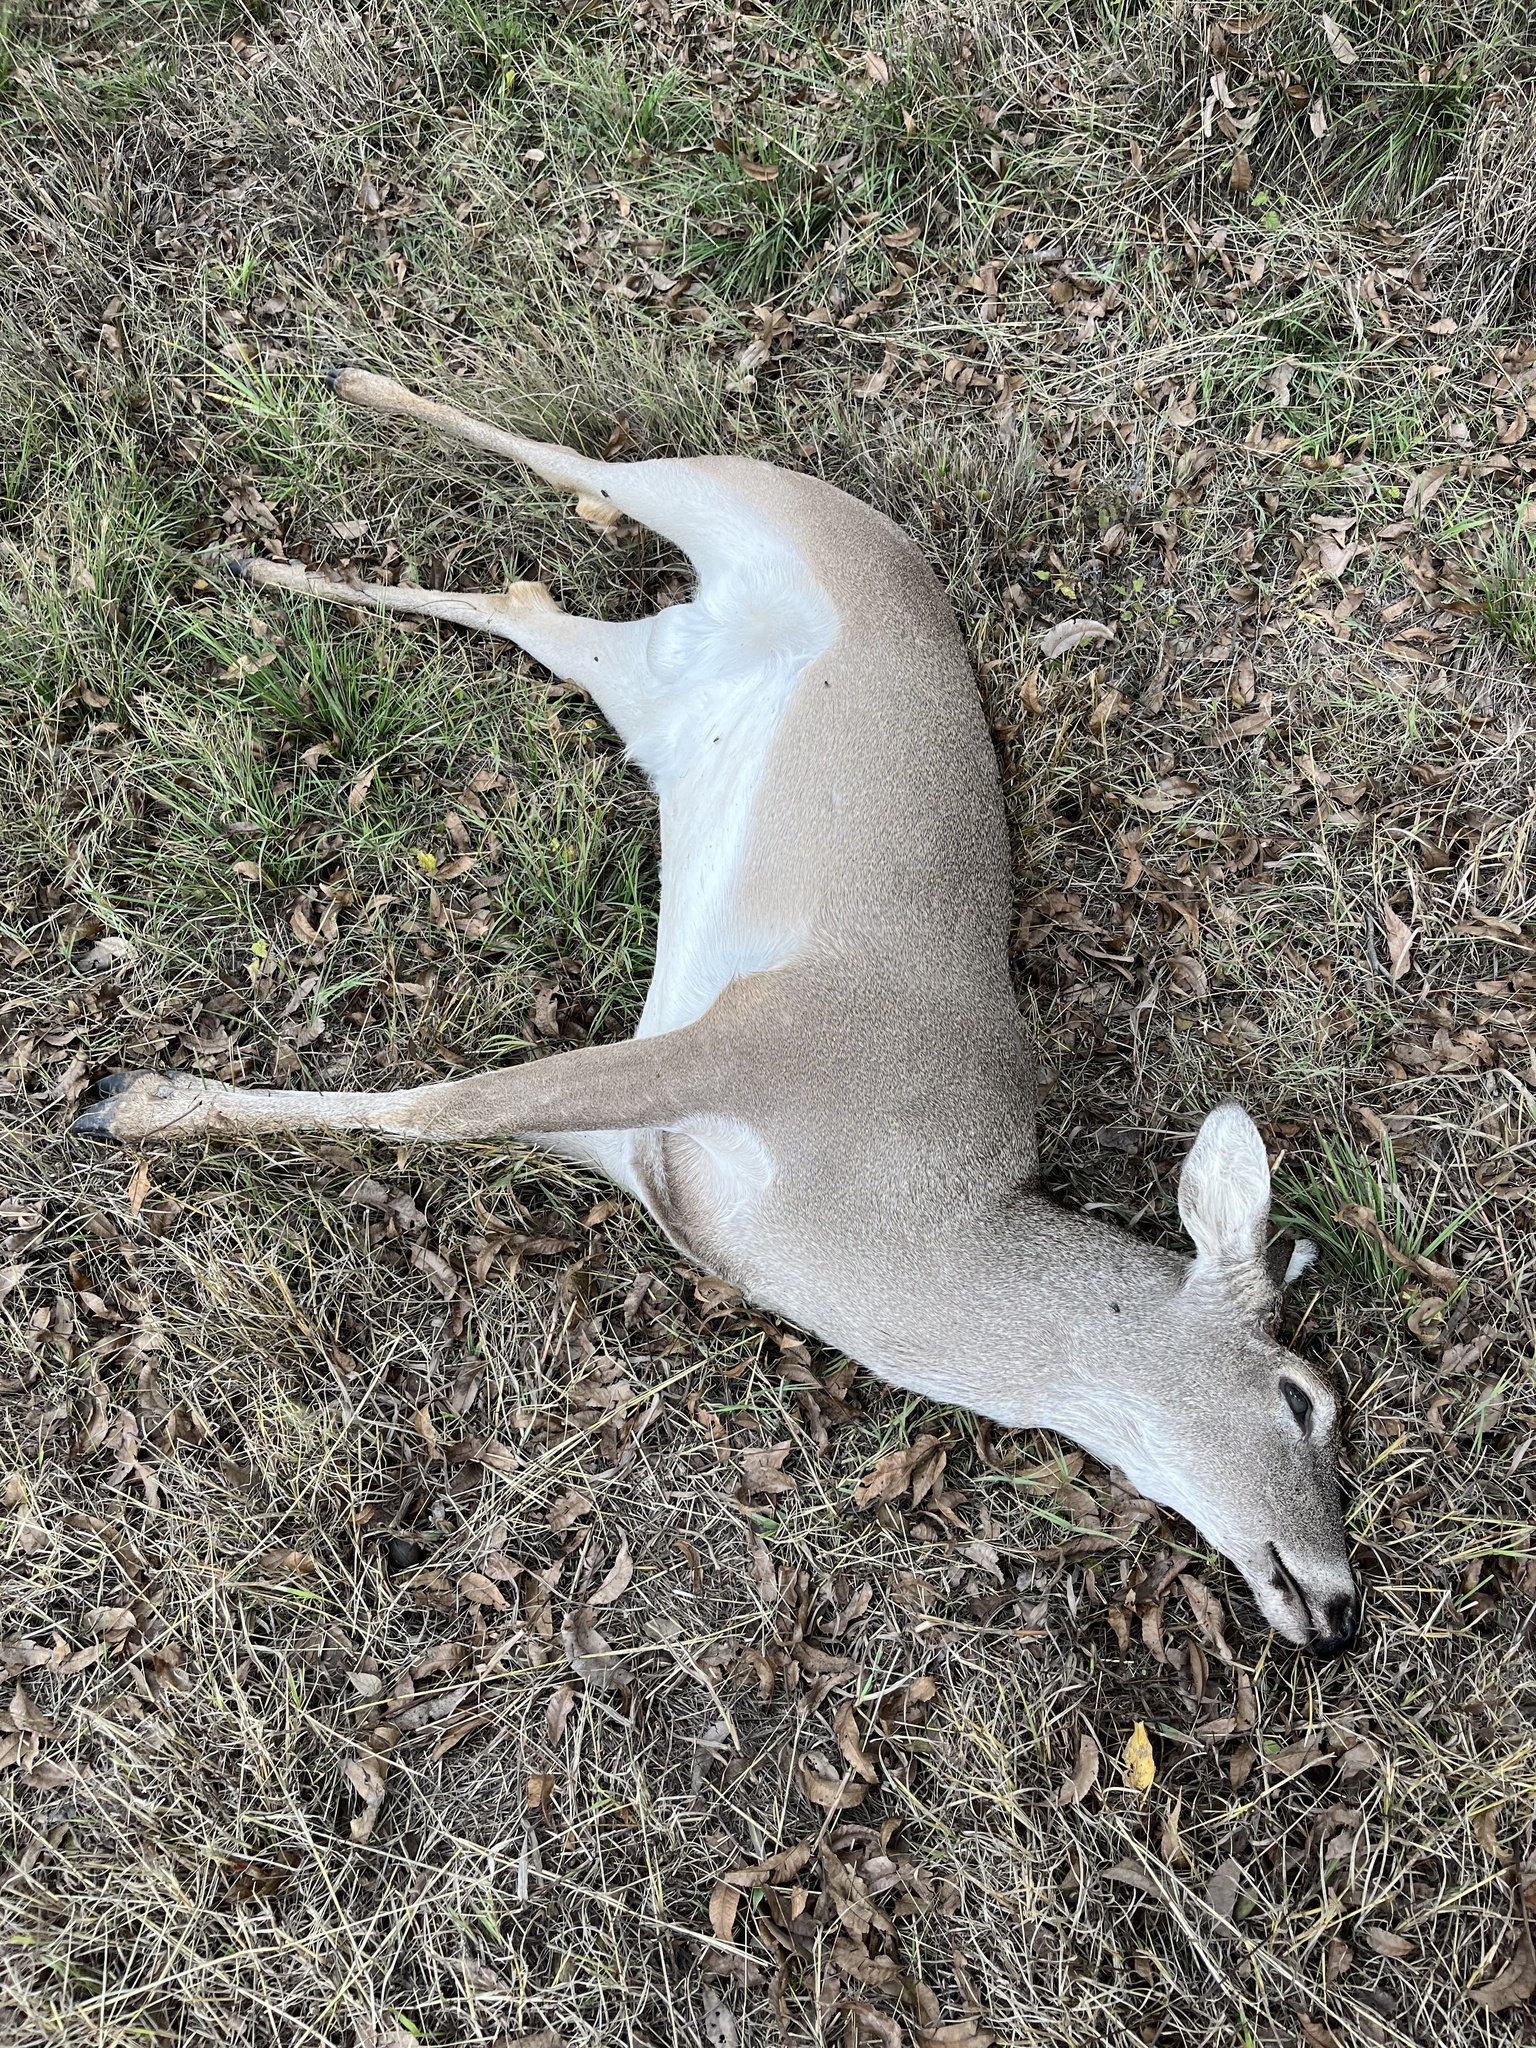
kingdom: Animalia
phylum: Chordata
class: Mammalia
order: Artiodactyla
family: Cervidae
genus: Odocoileus
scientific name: Odocoileus virginianus
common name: White-tailed deer
